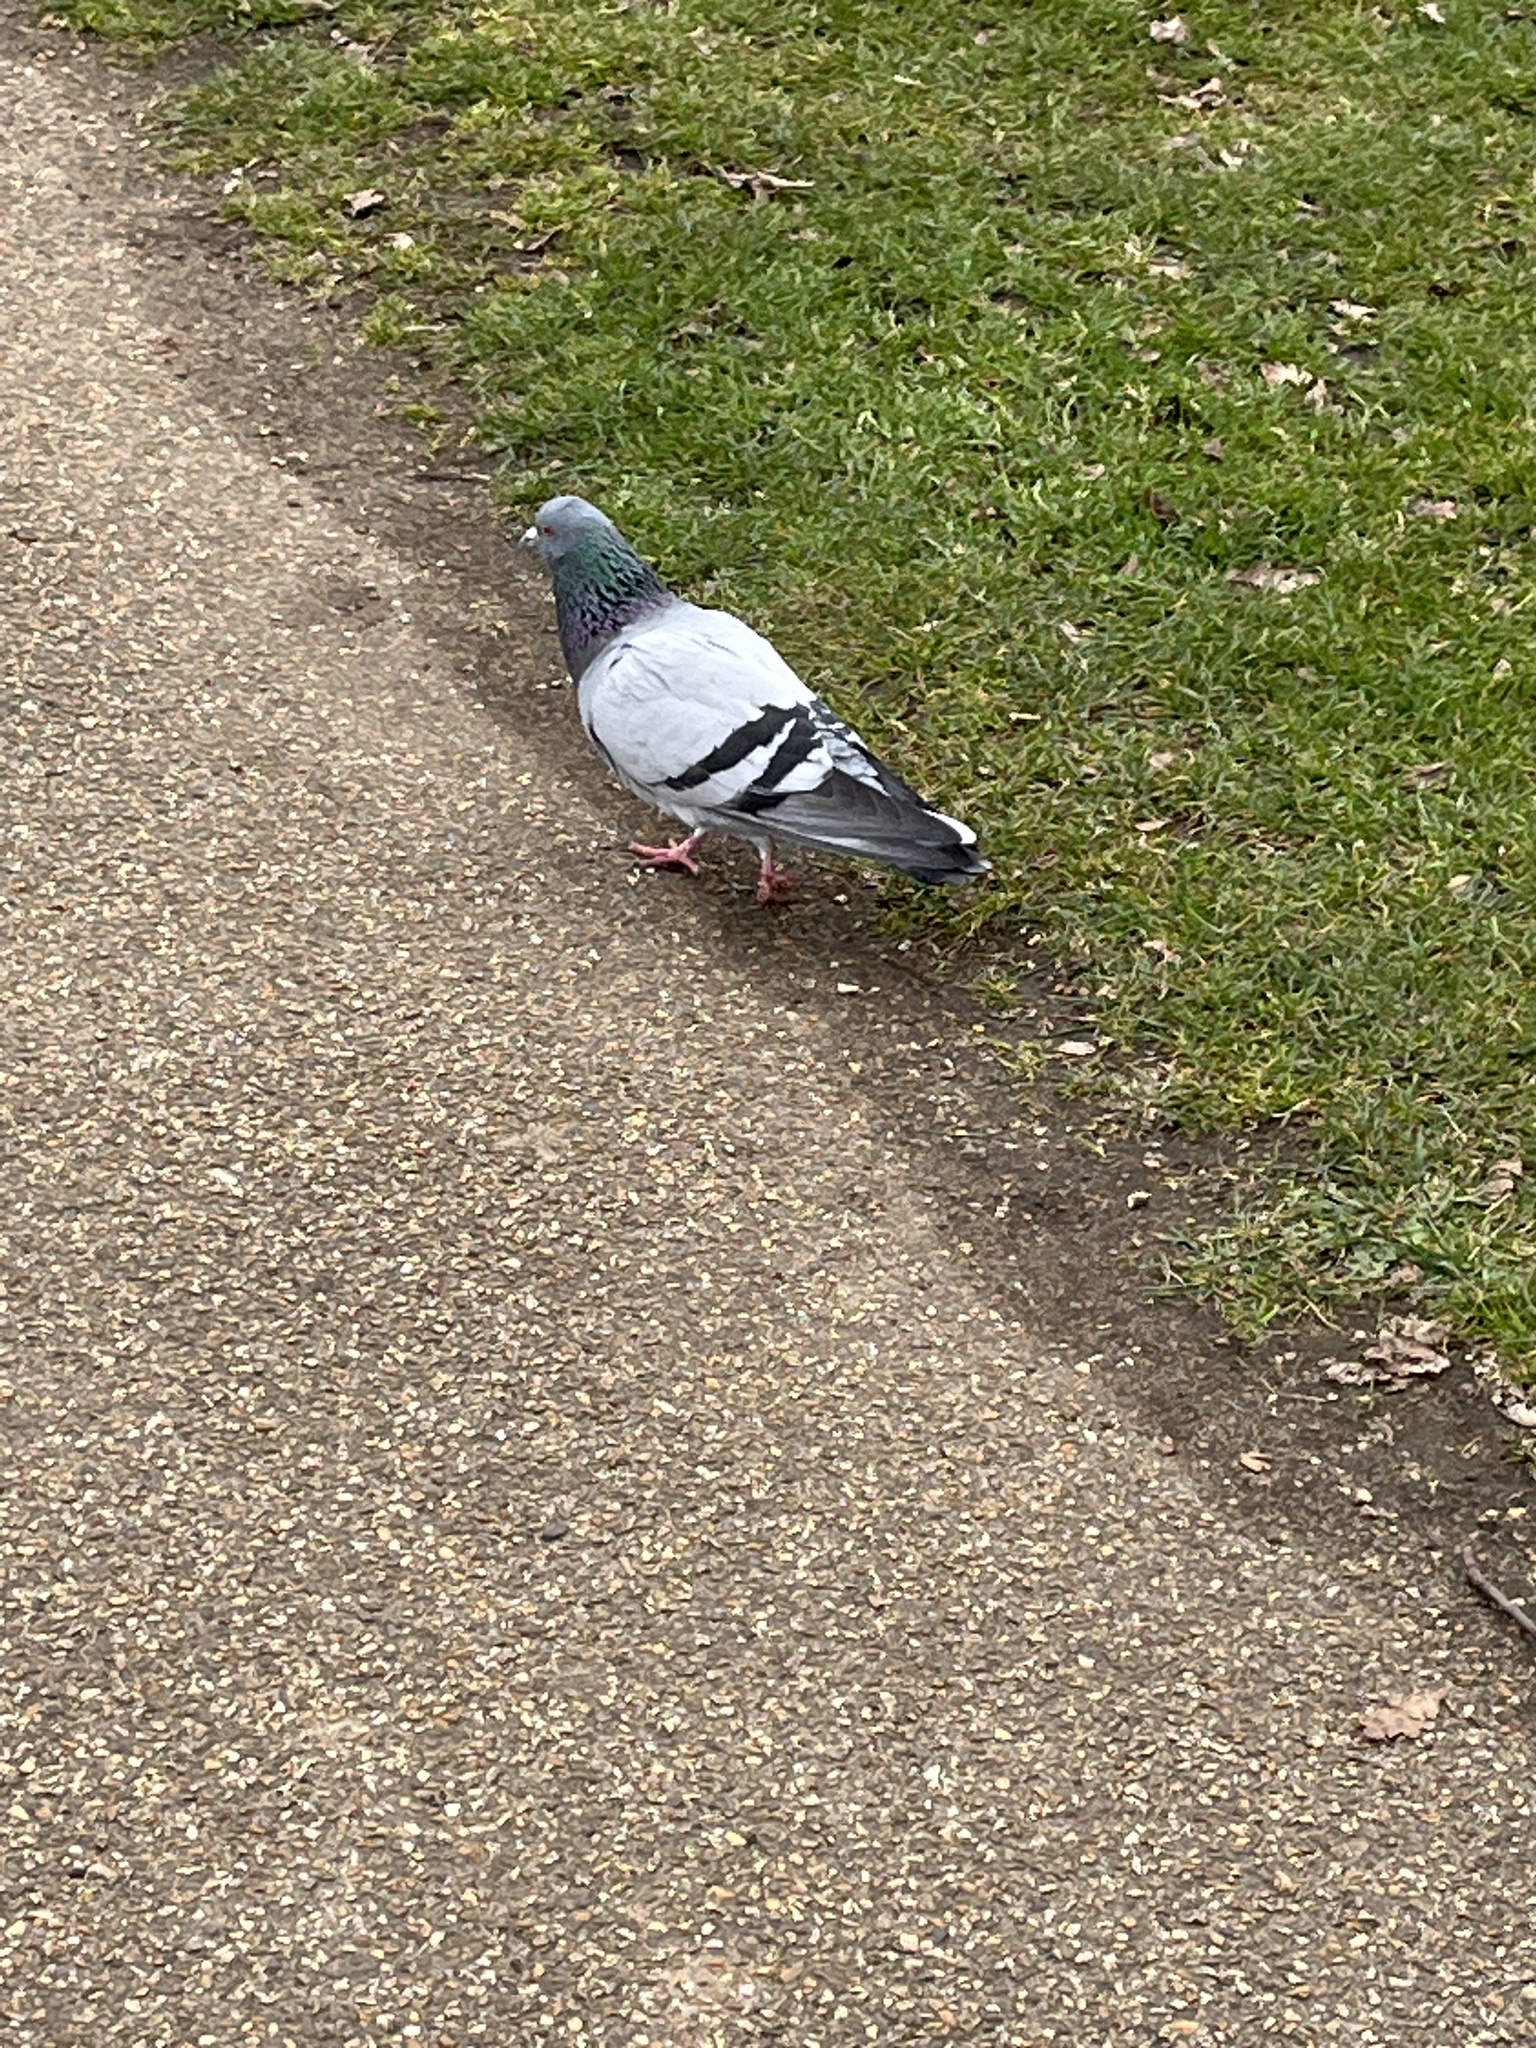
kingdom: Animalia
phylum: Chordata
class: Aves
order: Columbiformes
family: Columbidae
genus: Columba
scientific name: Columba livia
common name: Rock pigeon
